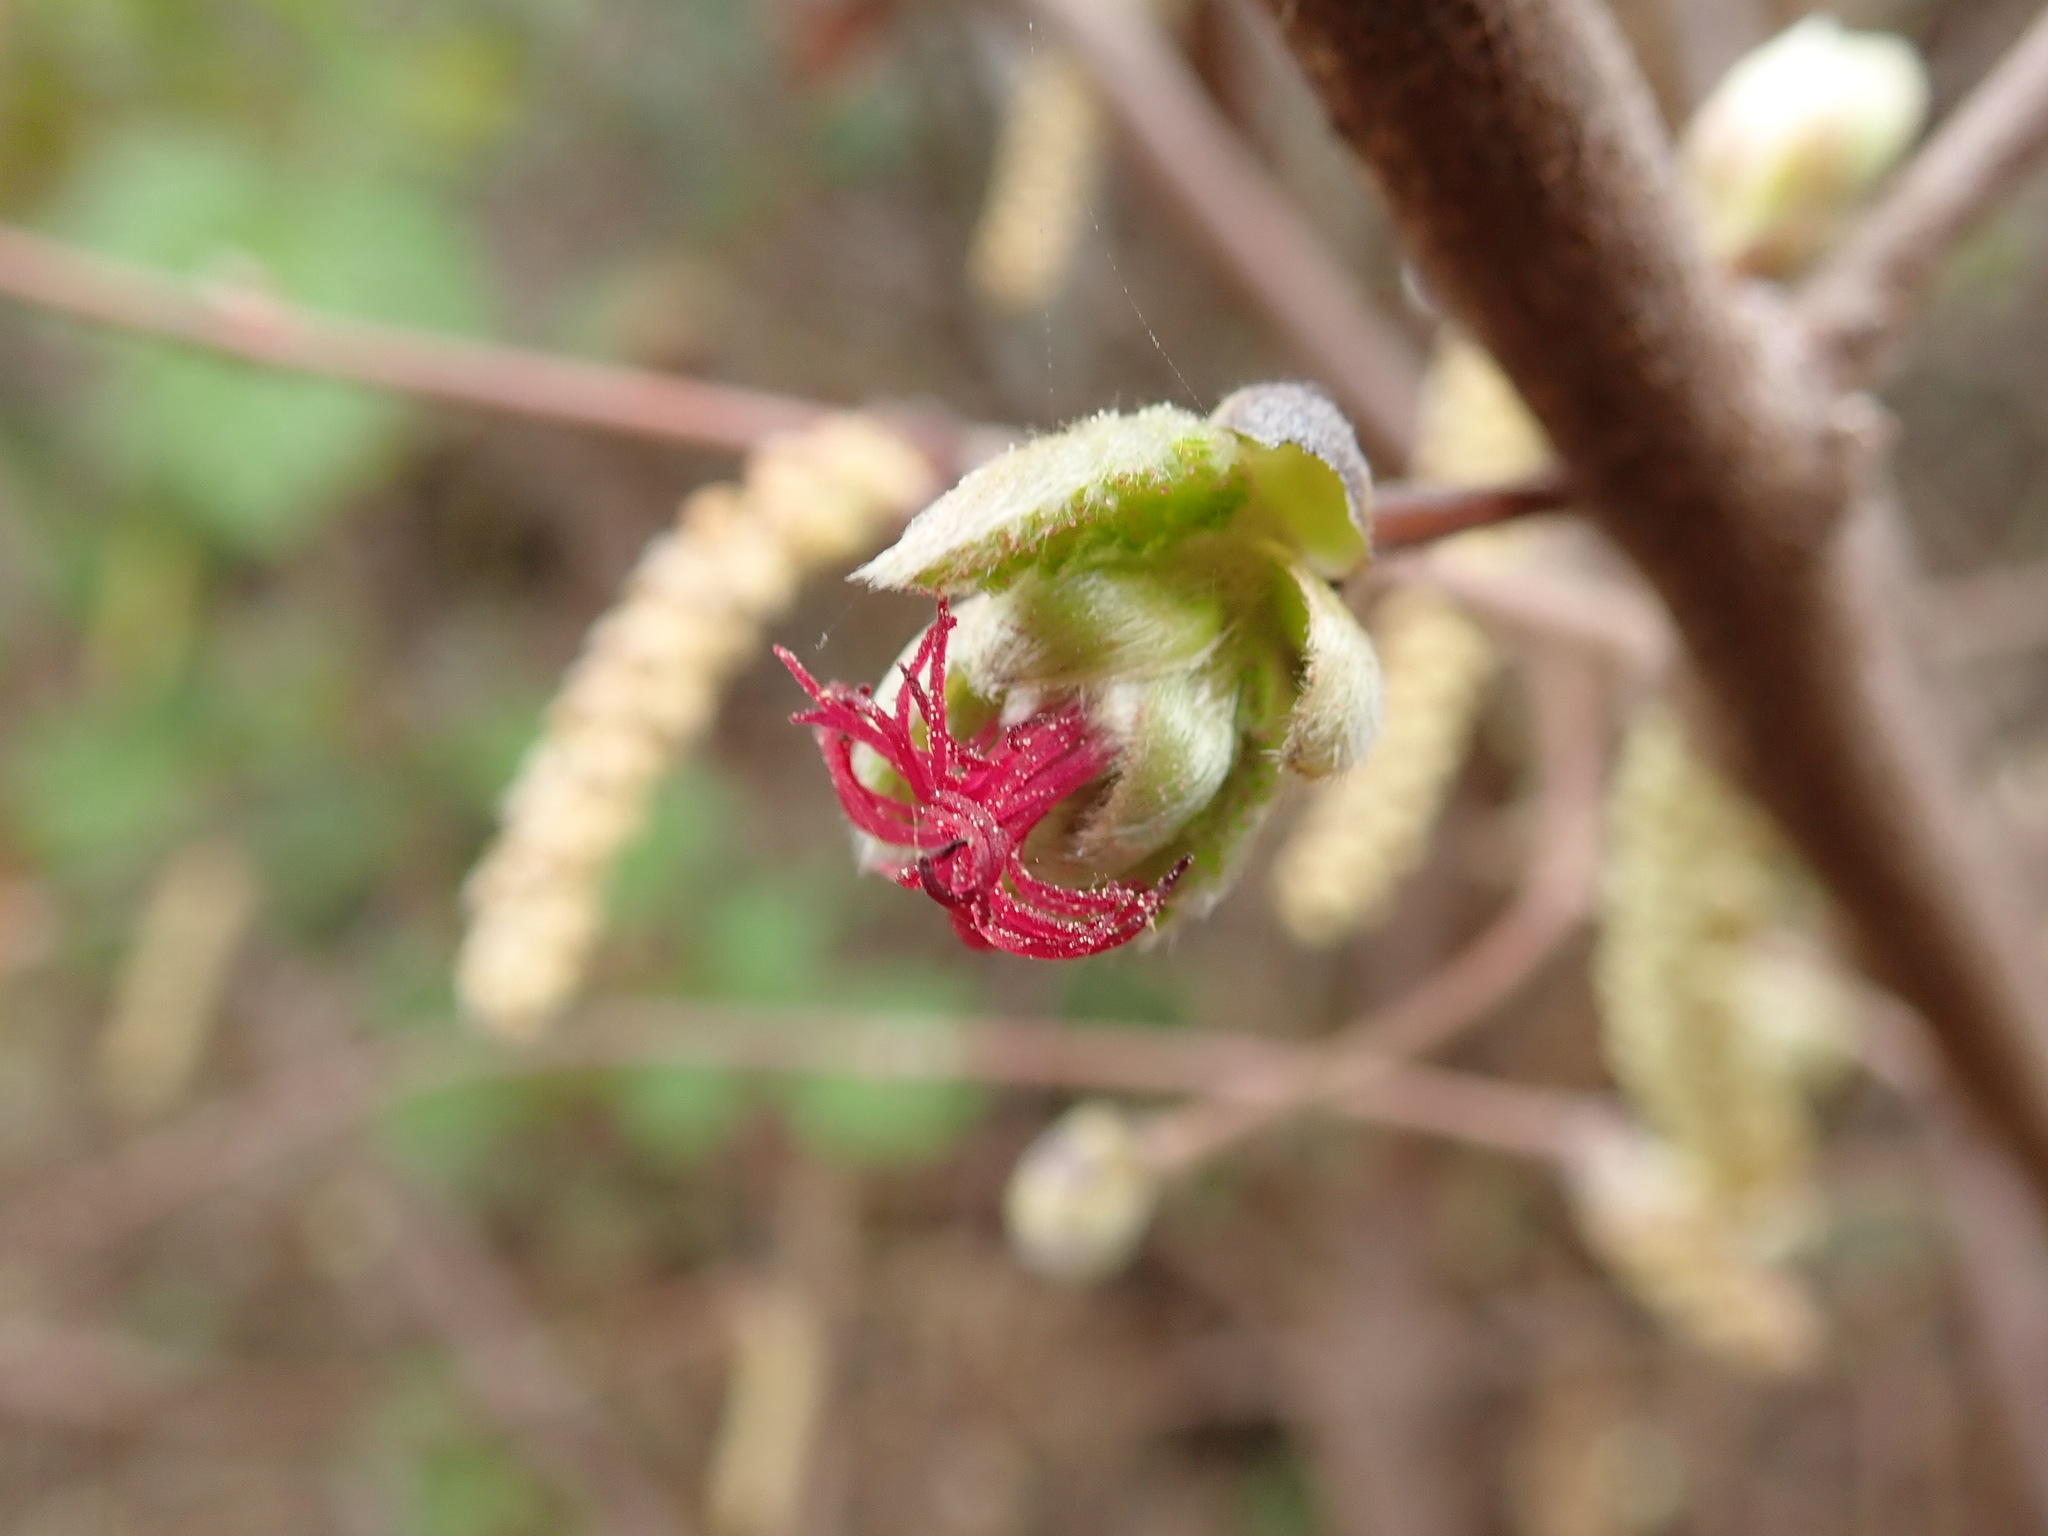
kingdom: Plantae
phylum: Tracheophyta
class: Magnoliopsida
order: Fagales
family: Betulaceae
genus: Corylus
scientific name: Corylus cornuta
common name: Beaked hazel
